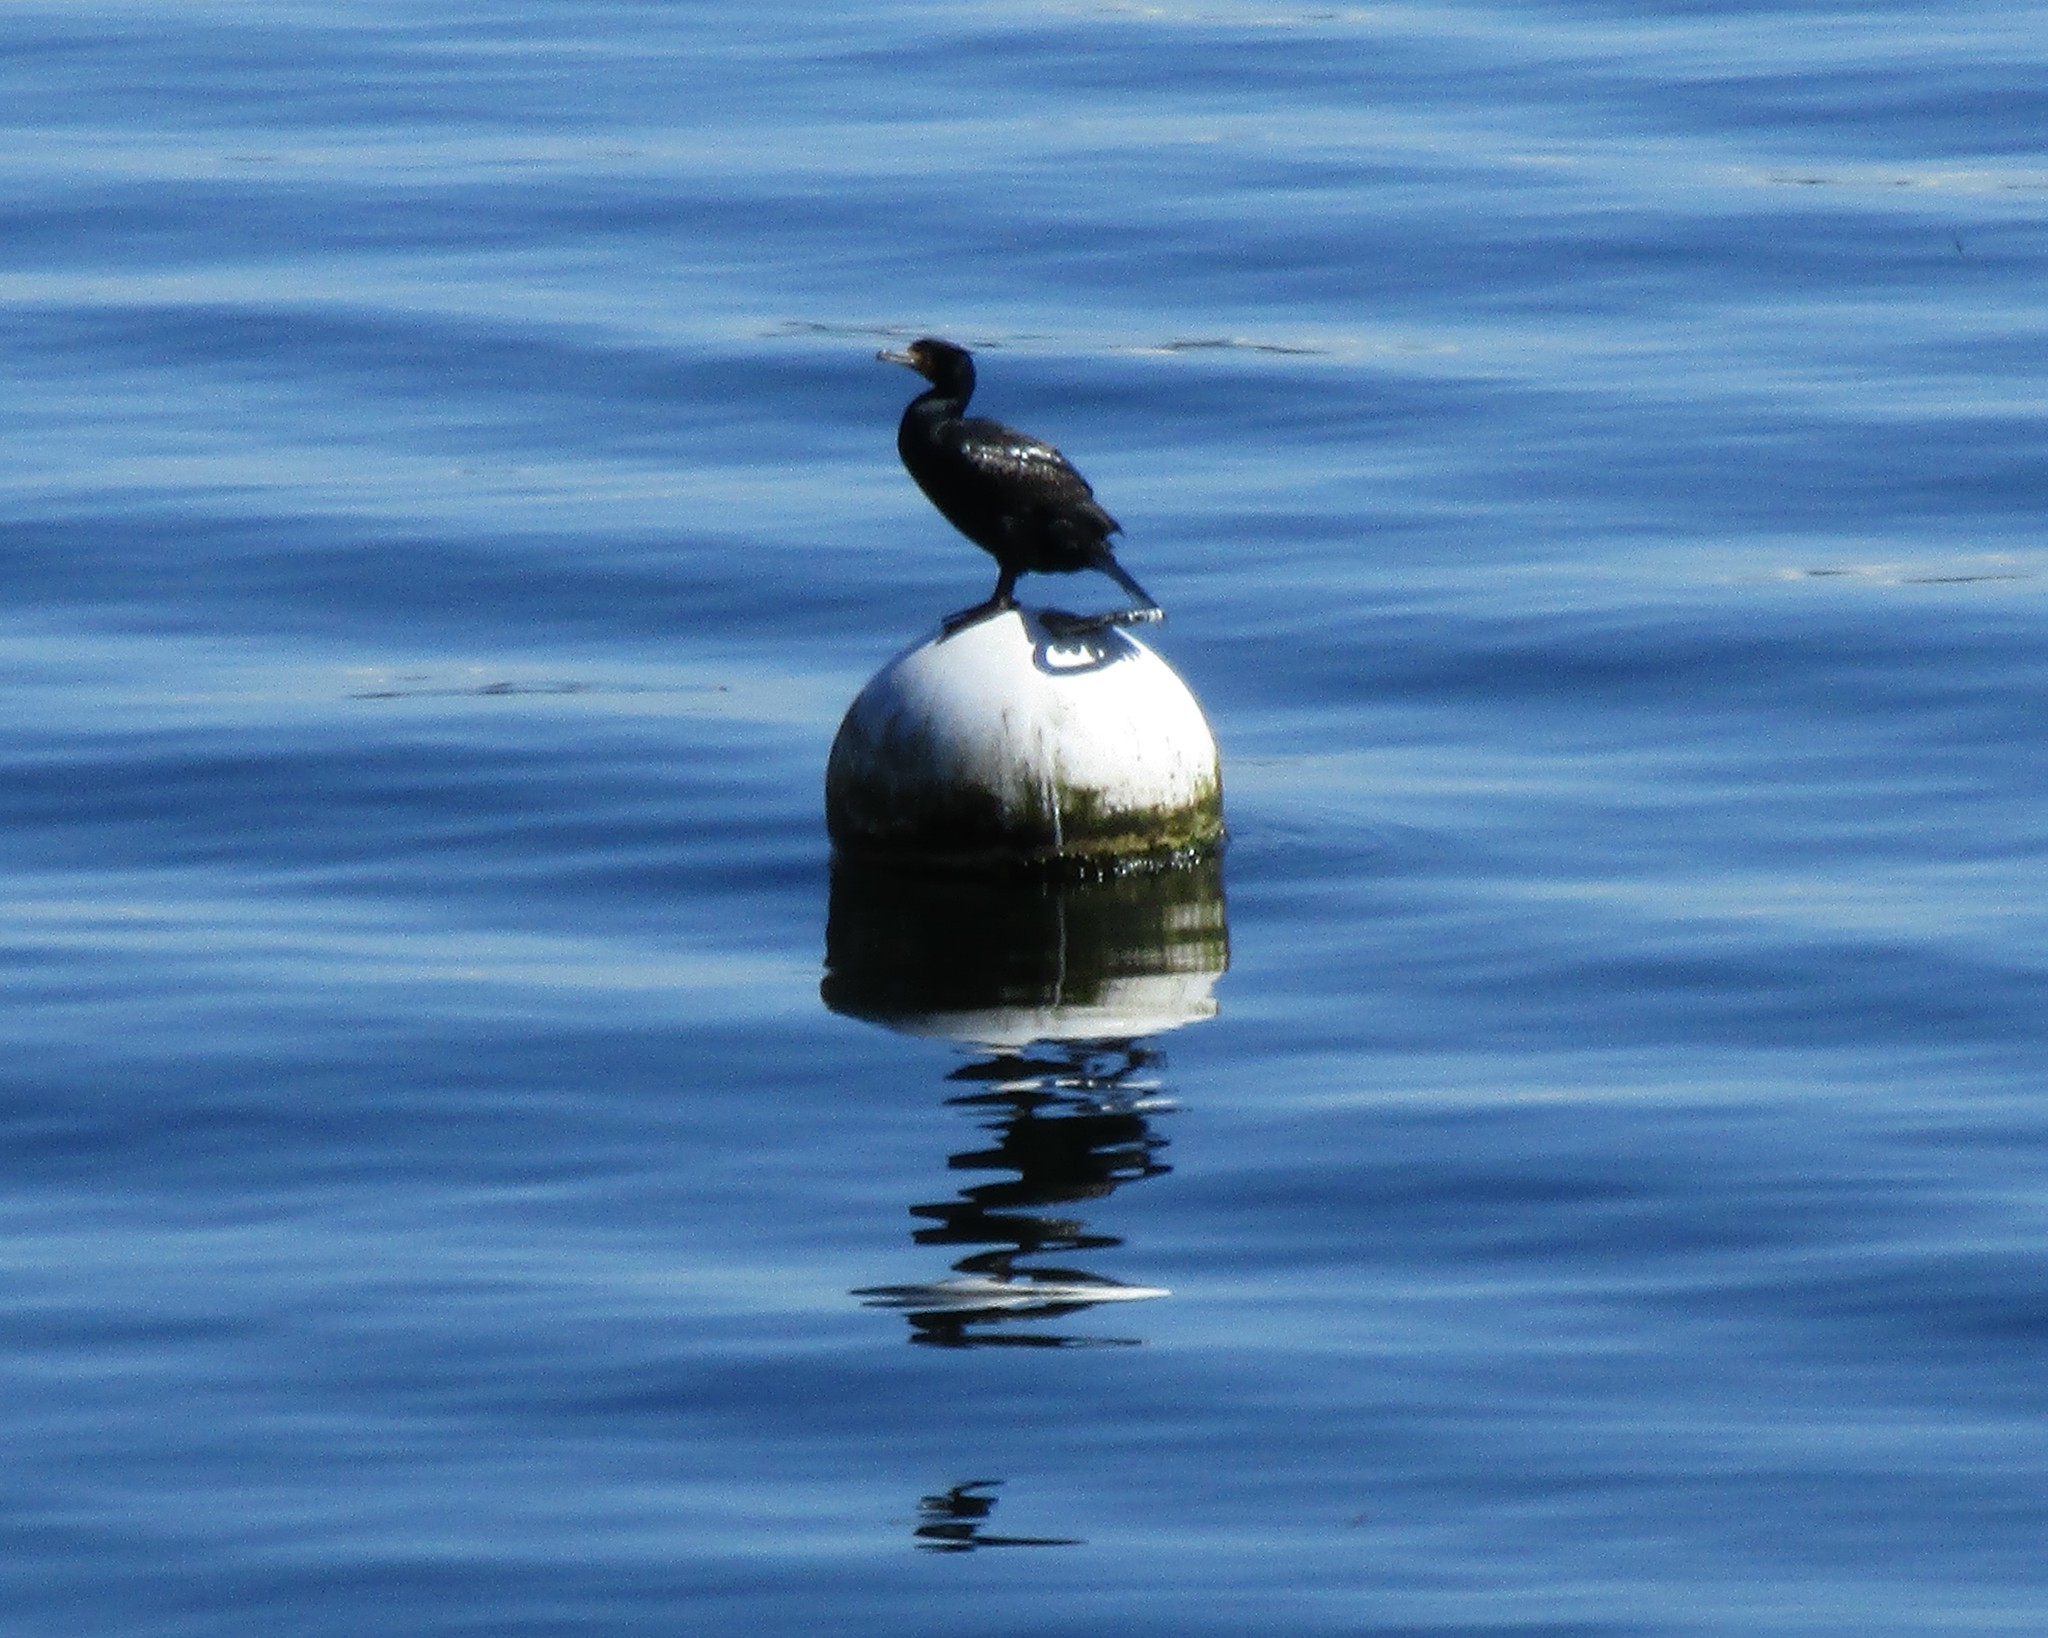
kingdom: Animalia
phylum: Chordata
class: Aves
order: Suliformes
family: Phalacrocoracidae
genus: Phalacrocorax
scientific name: Phalacrocorax auritus
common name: Double-crested cormorant
